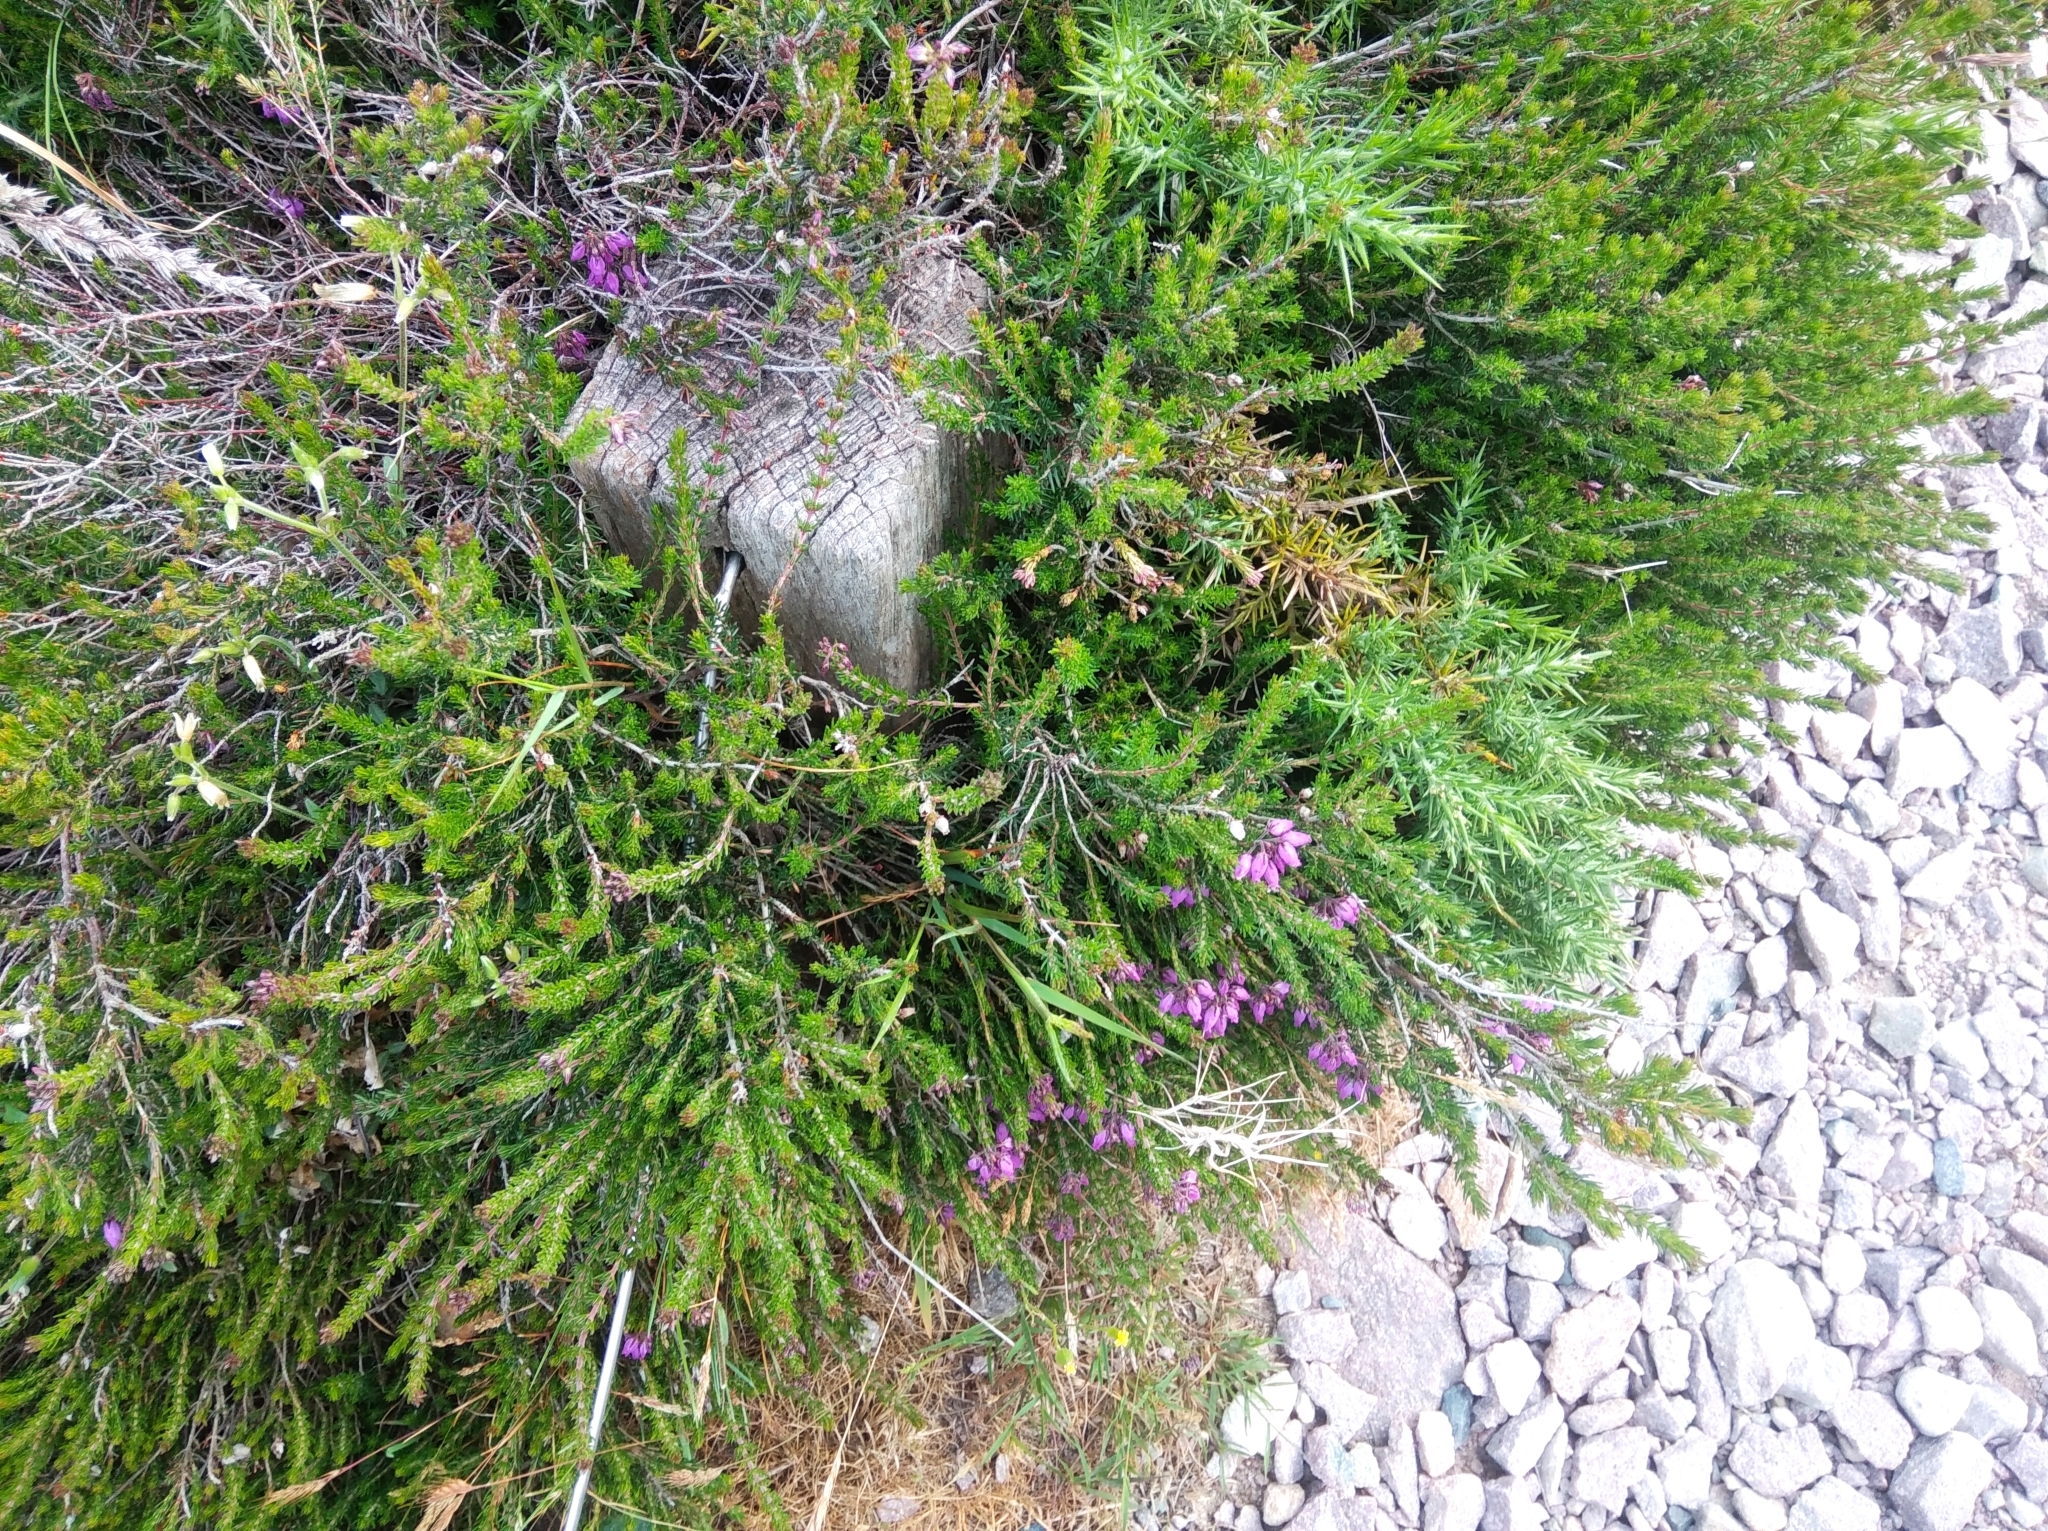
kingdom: Plantae
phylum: Tracheophyta
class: Magnoliopsida
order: Ericales
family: Ericaceae
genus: Erica
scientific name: Erica cinerea
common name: Bell heather
